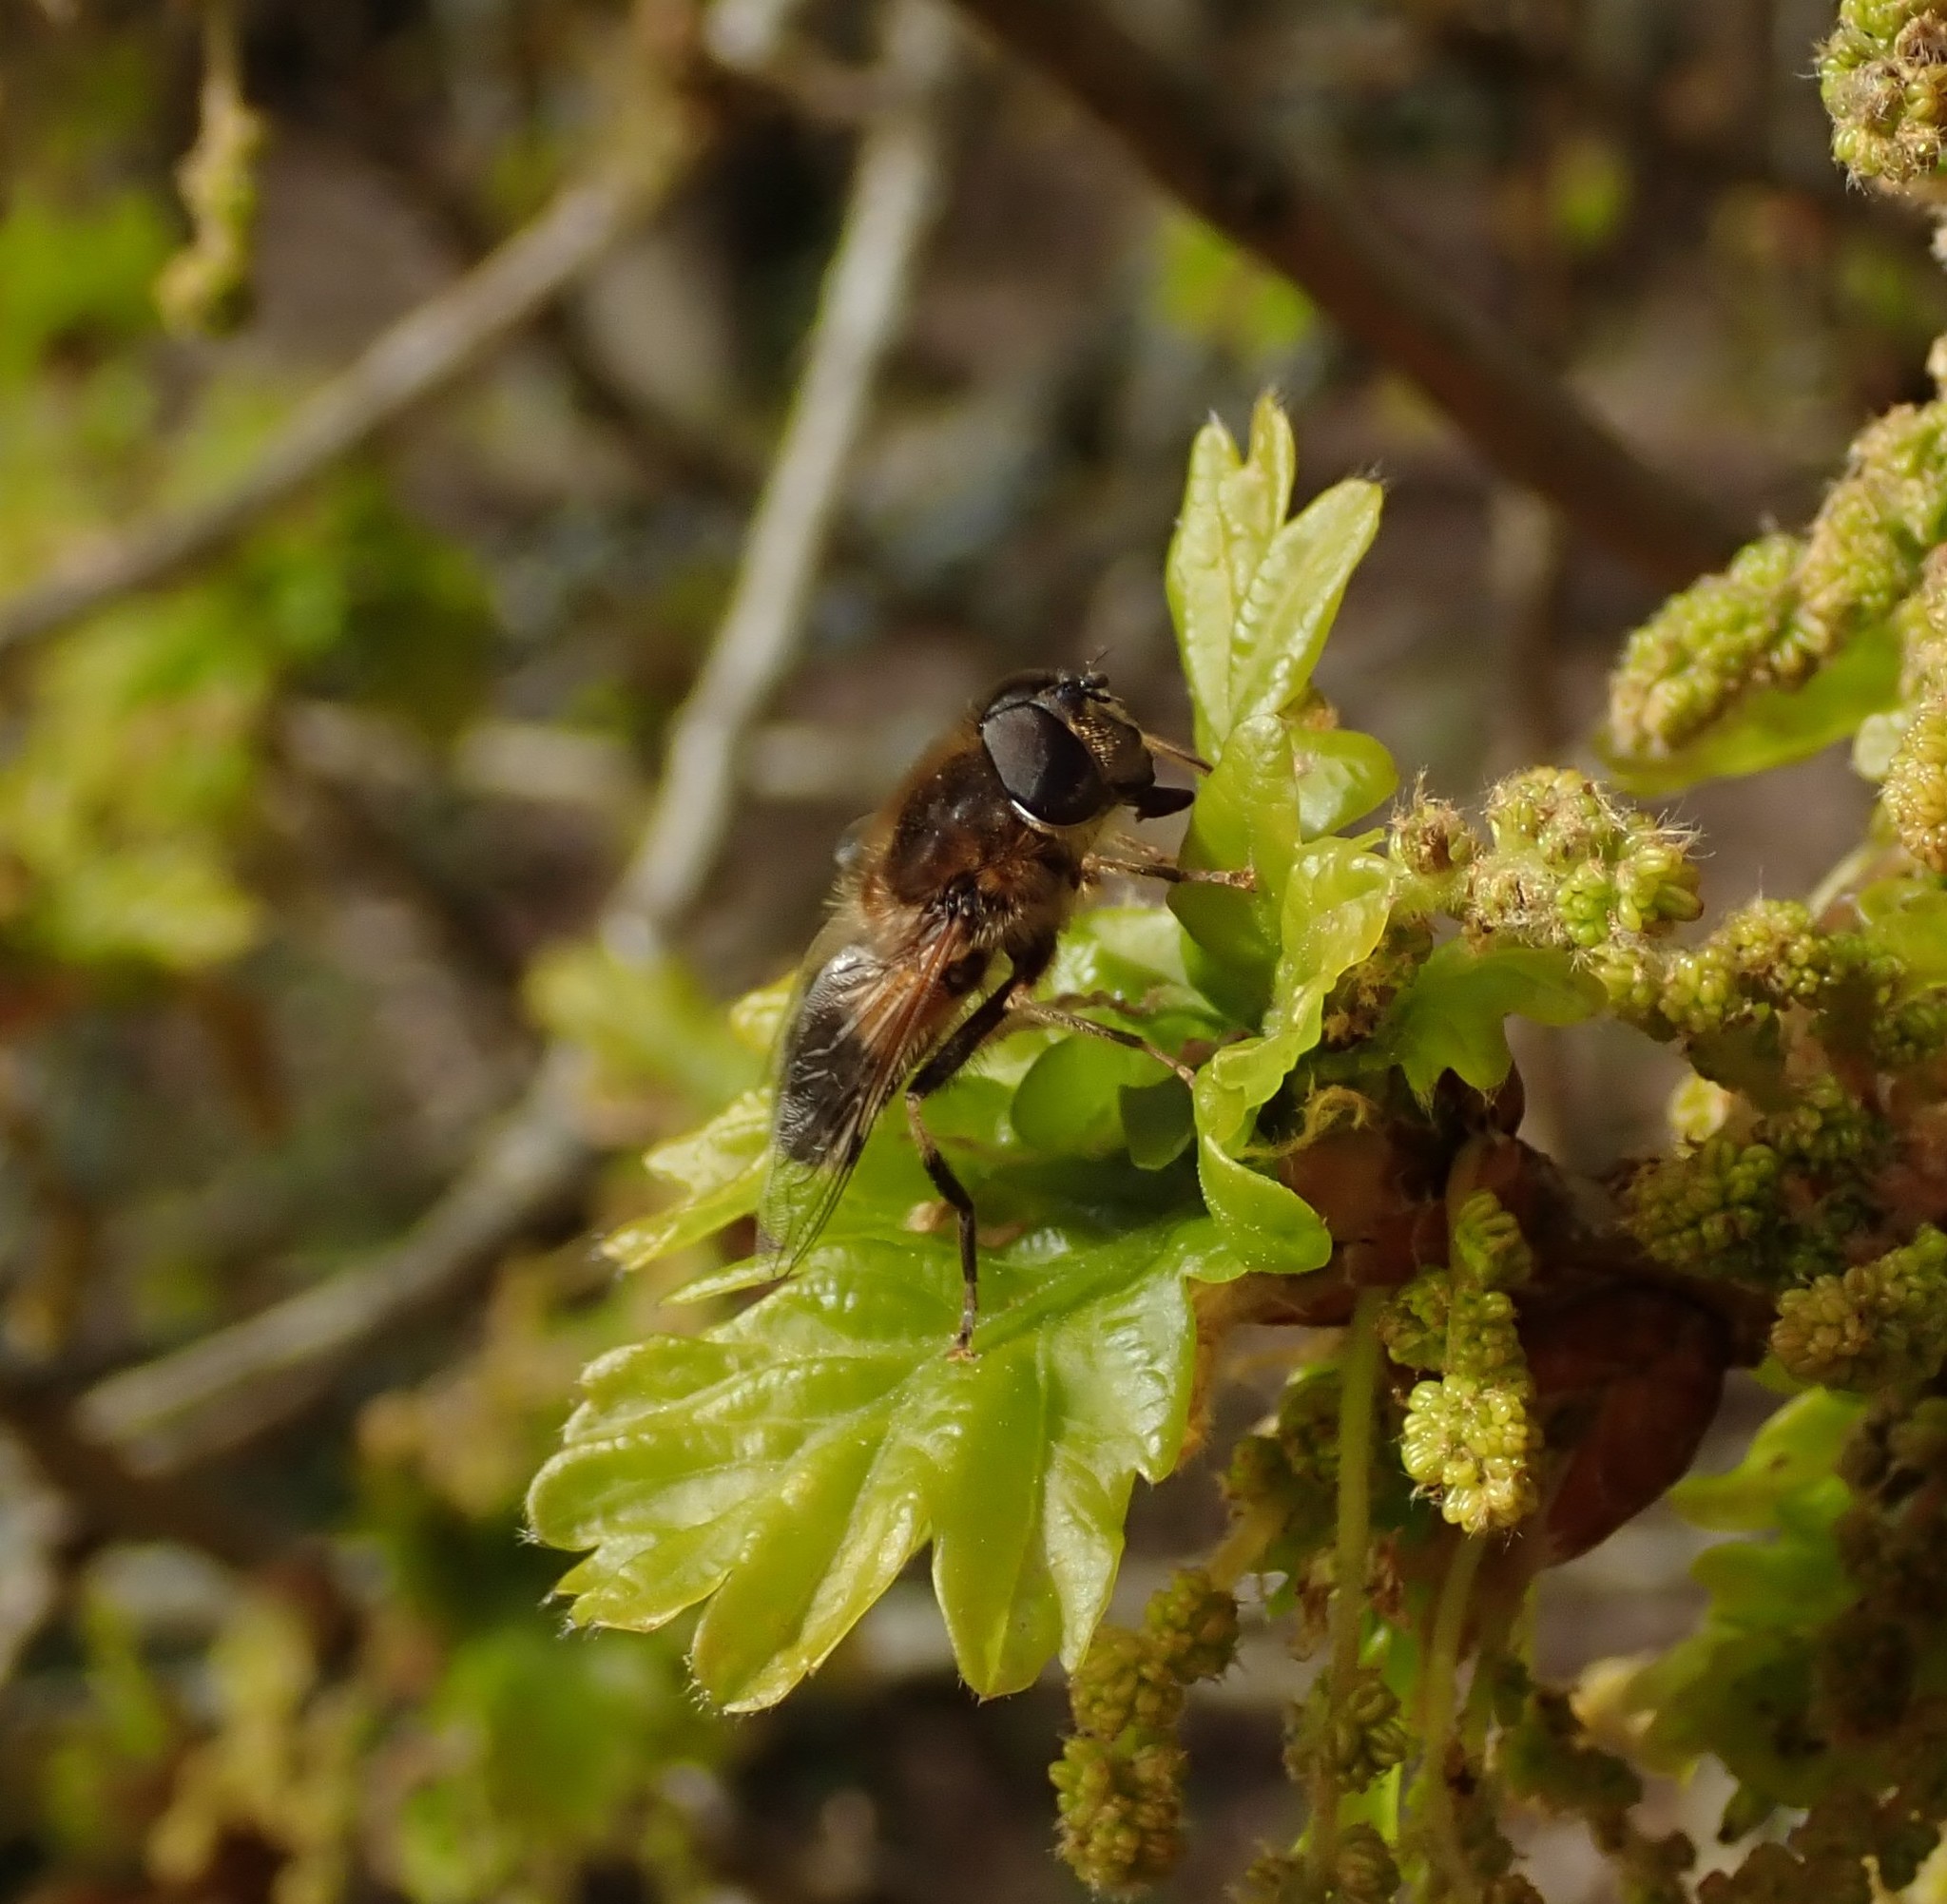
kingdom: Animalia
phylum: Arthropoda
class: Insecta
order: Diptera
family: Syrphidae
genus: Eristalis
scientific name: Eristalis pertinax
